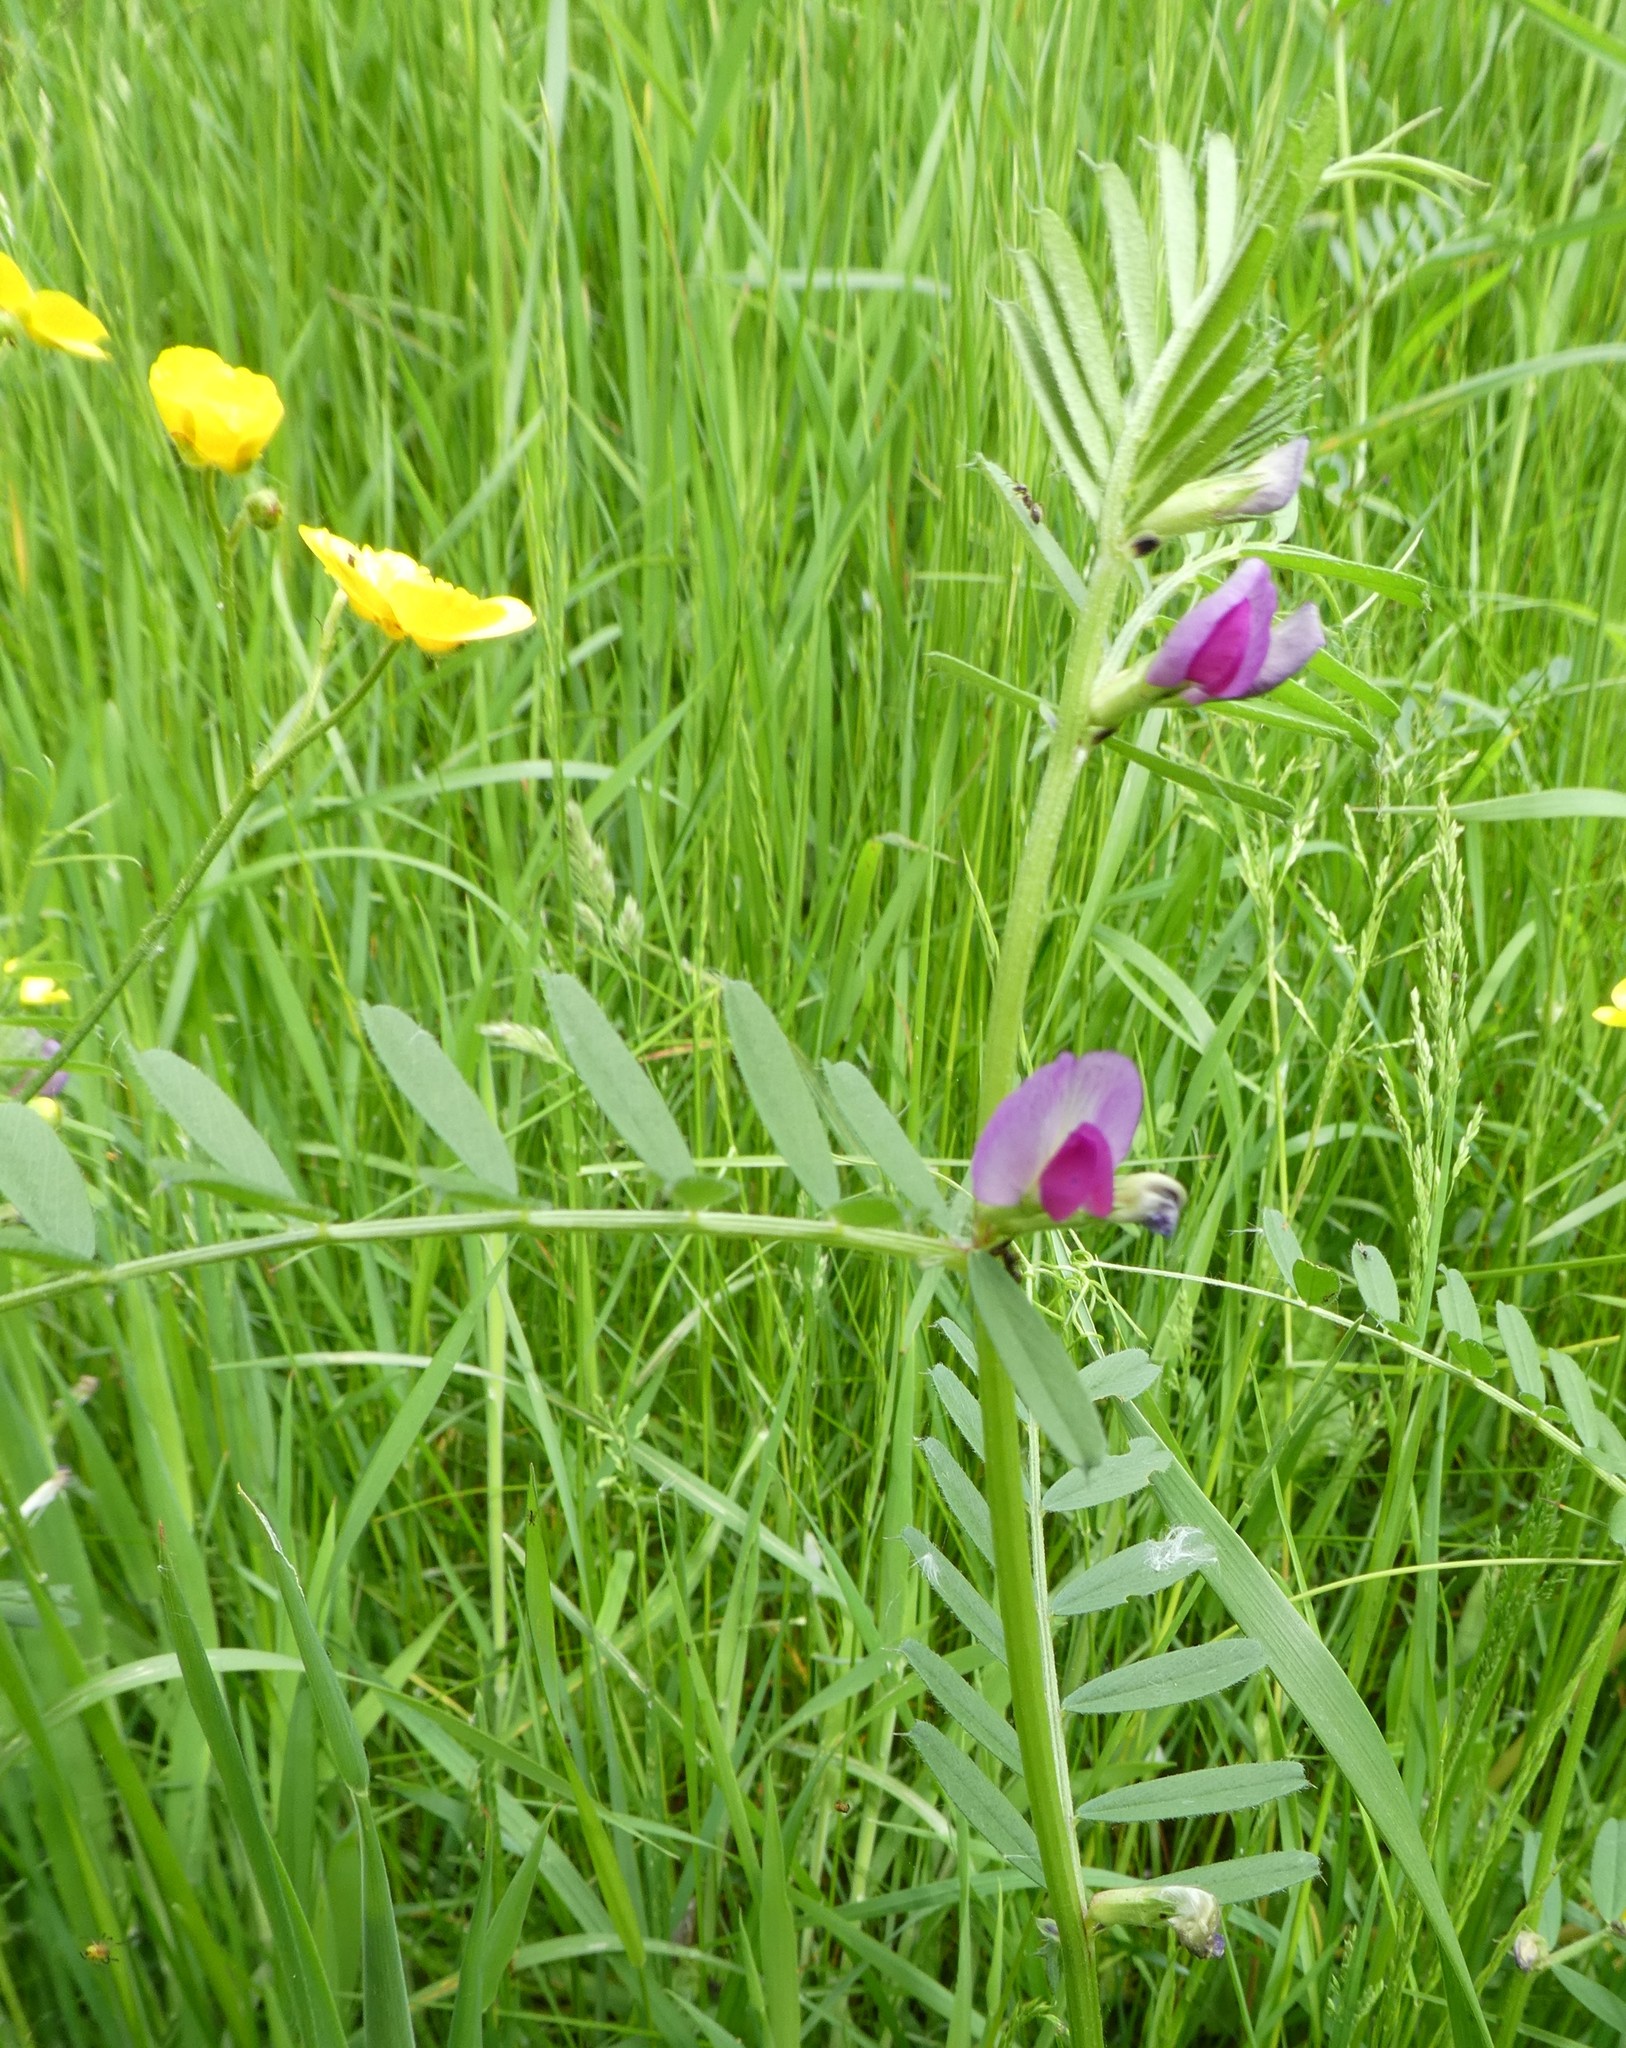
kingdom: Plantae
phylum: Tracheophyta
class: Magnoliopsida
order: Fabales
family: Fabaceae
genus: Vicia
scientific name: Vicia sativa
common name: Garden vetch
